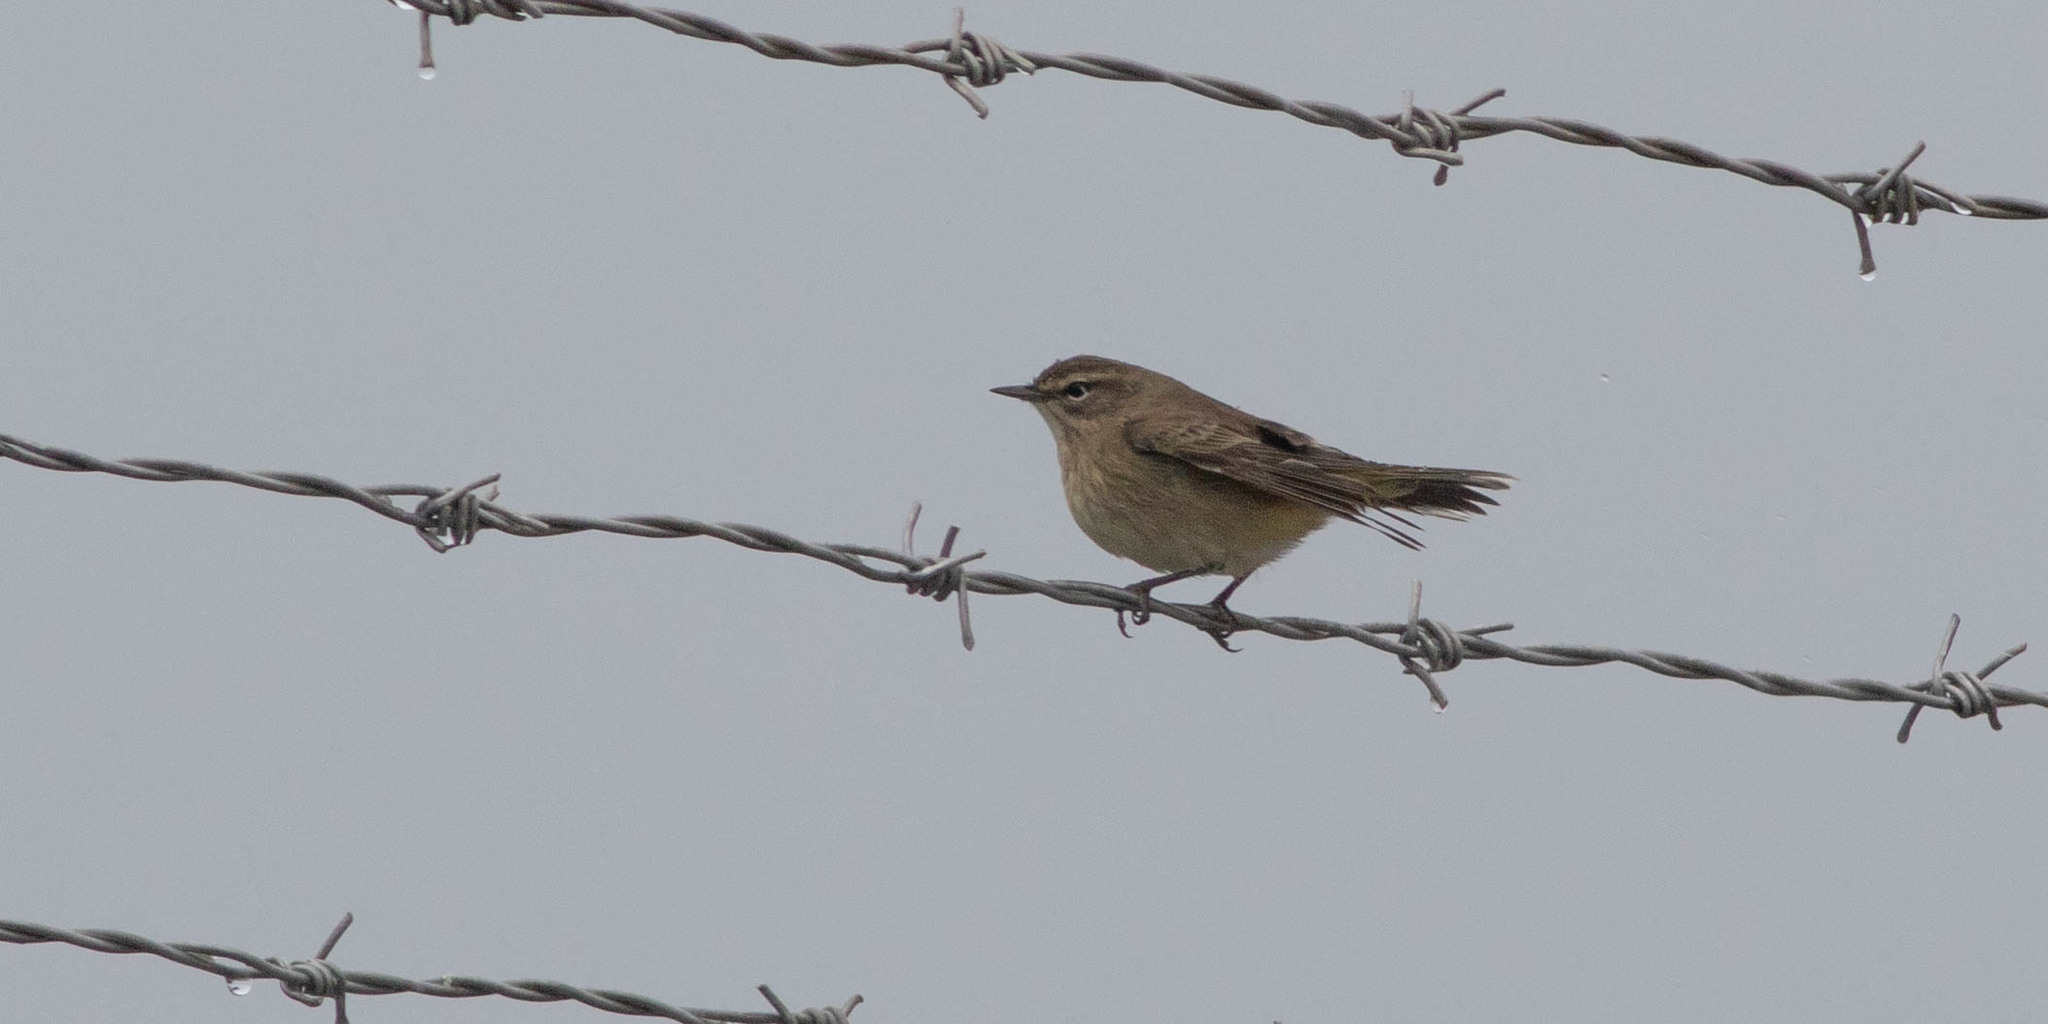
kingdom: Animalia
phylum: Chordata
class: Aves
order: Passeriformes
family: Parulidae
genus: Setophaga
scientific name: Setophaga palmarum
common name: Palm warbler
